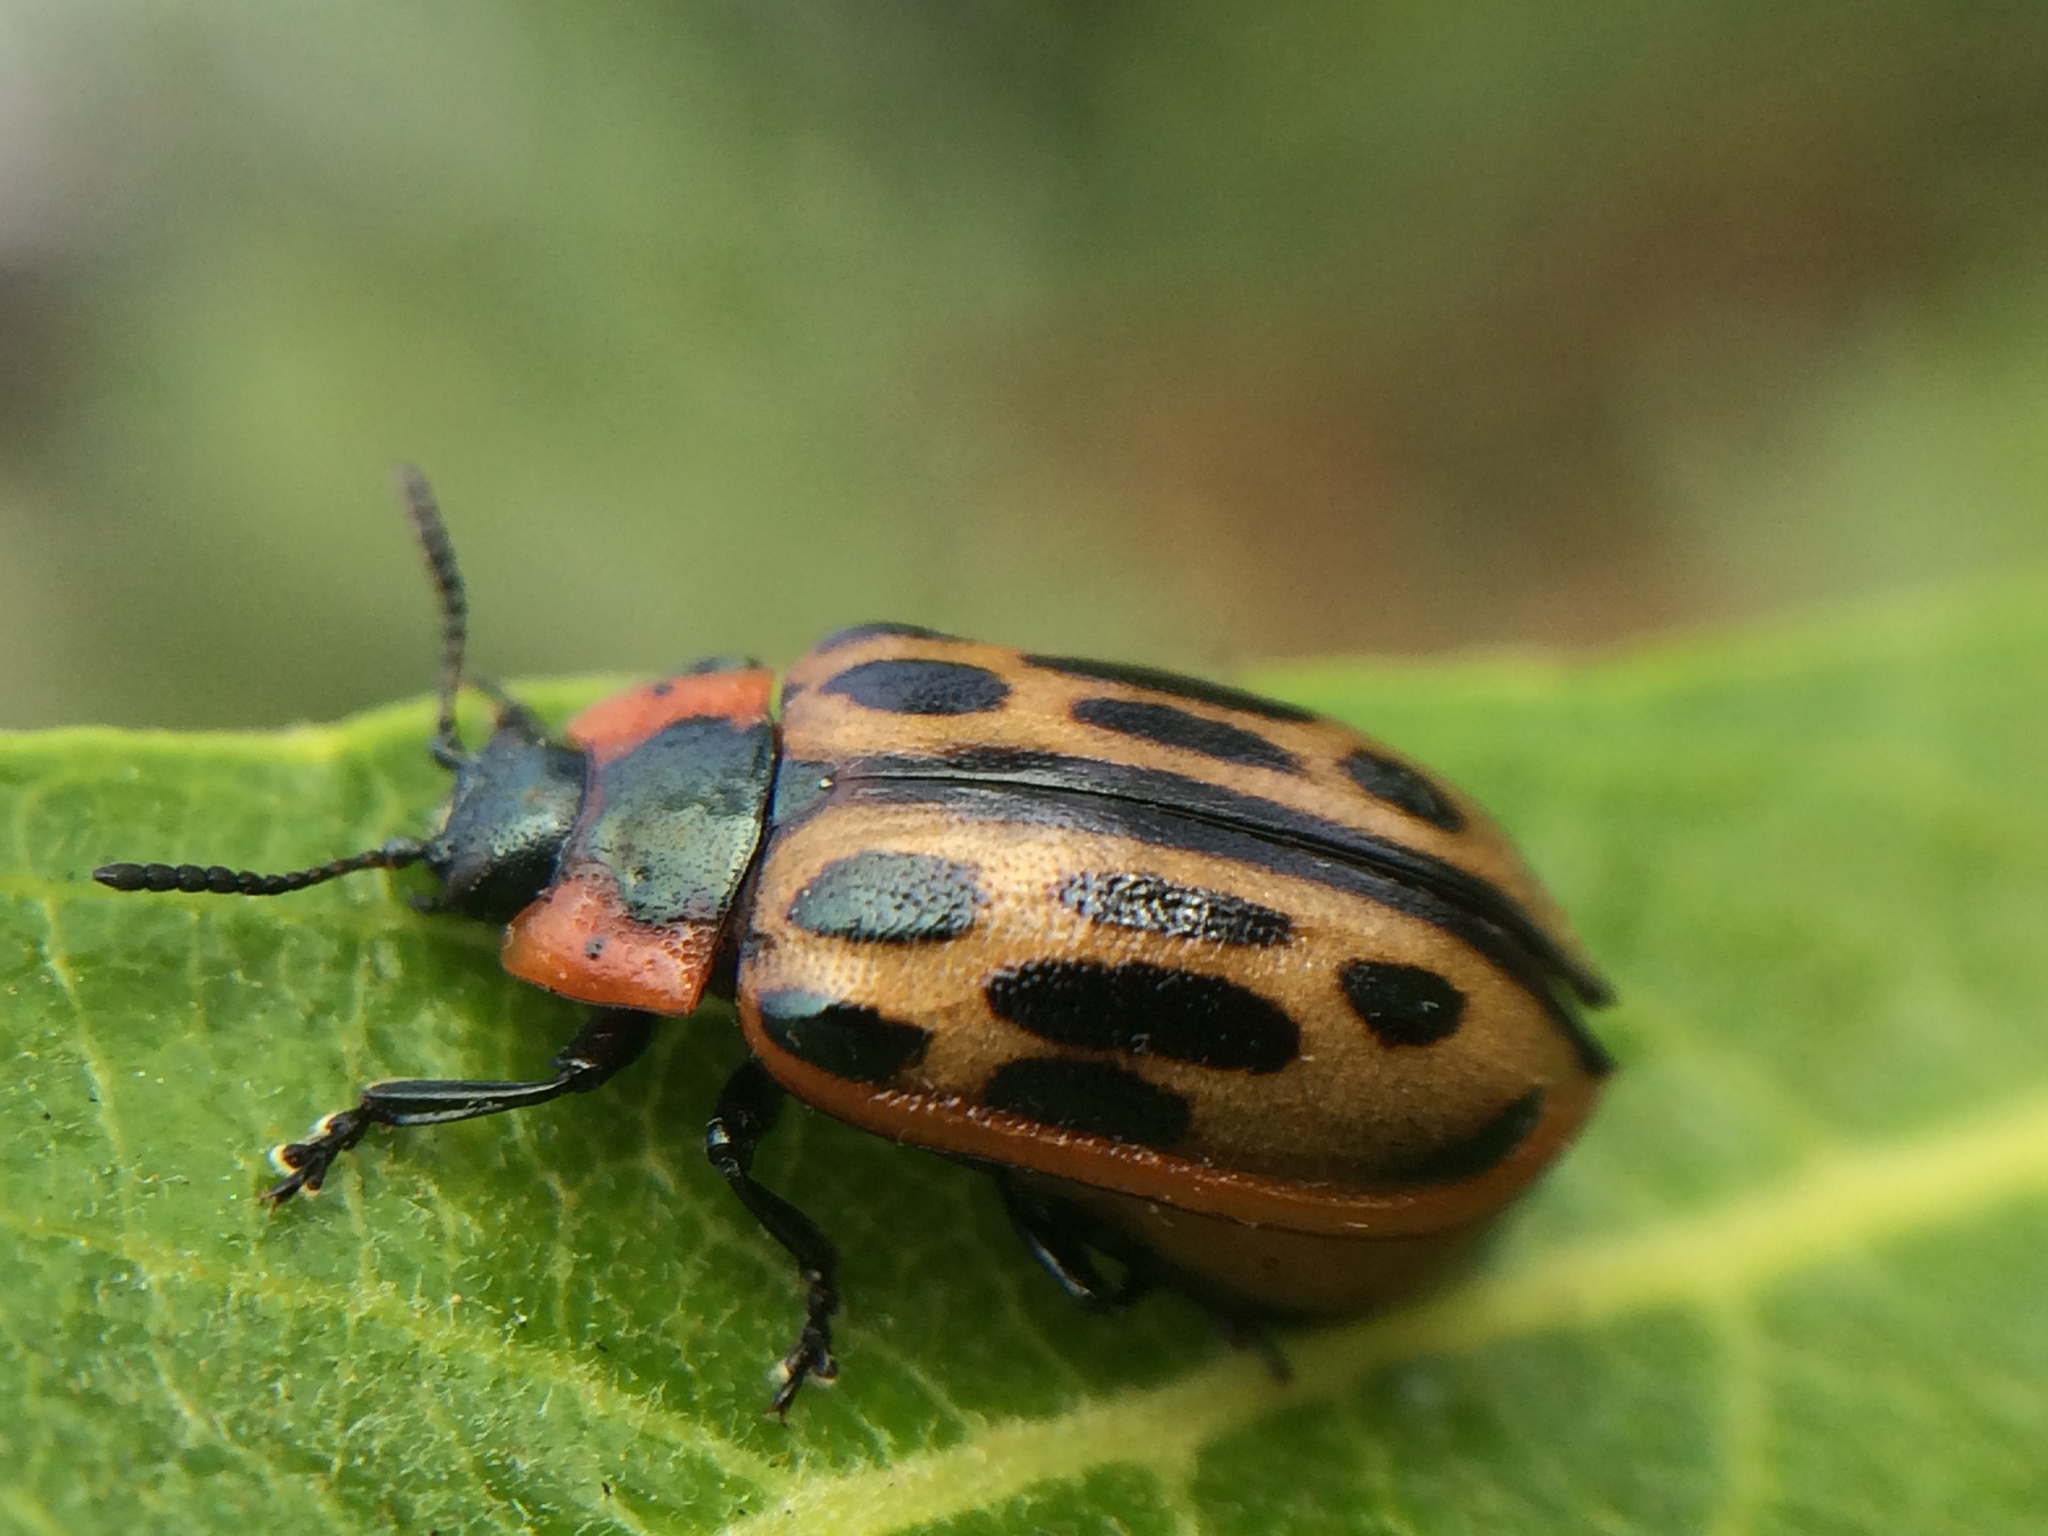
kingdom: Animalia
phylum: Arthropoda
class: Insecta
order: Coleoptera
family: Chrysomelidae
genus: Chrysomela
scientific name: Chrysomela confluens
